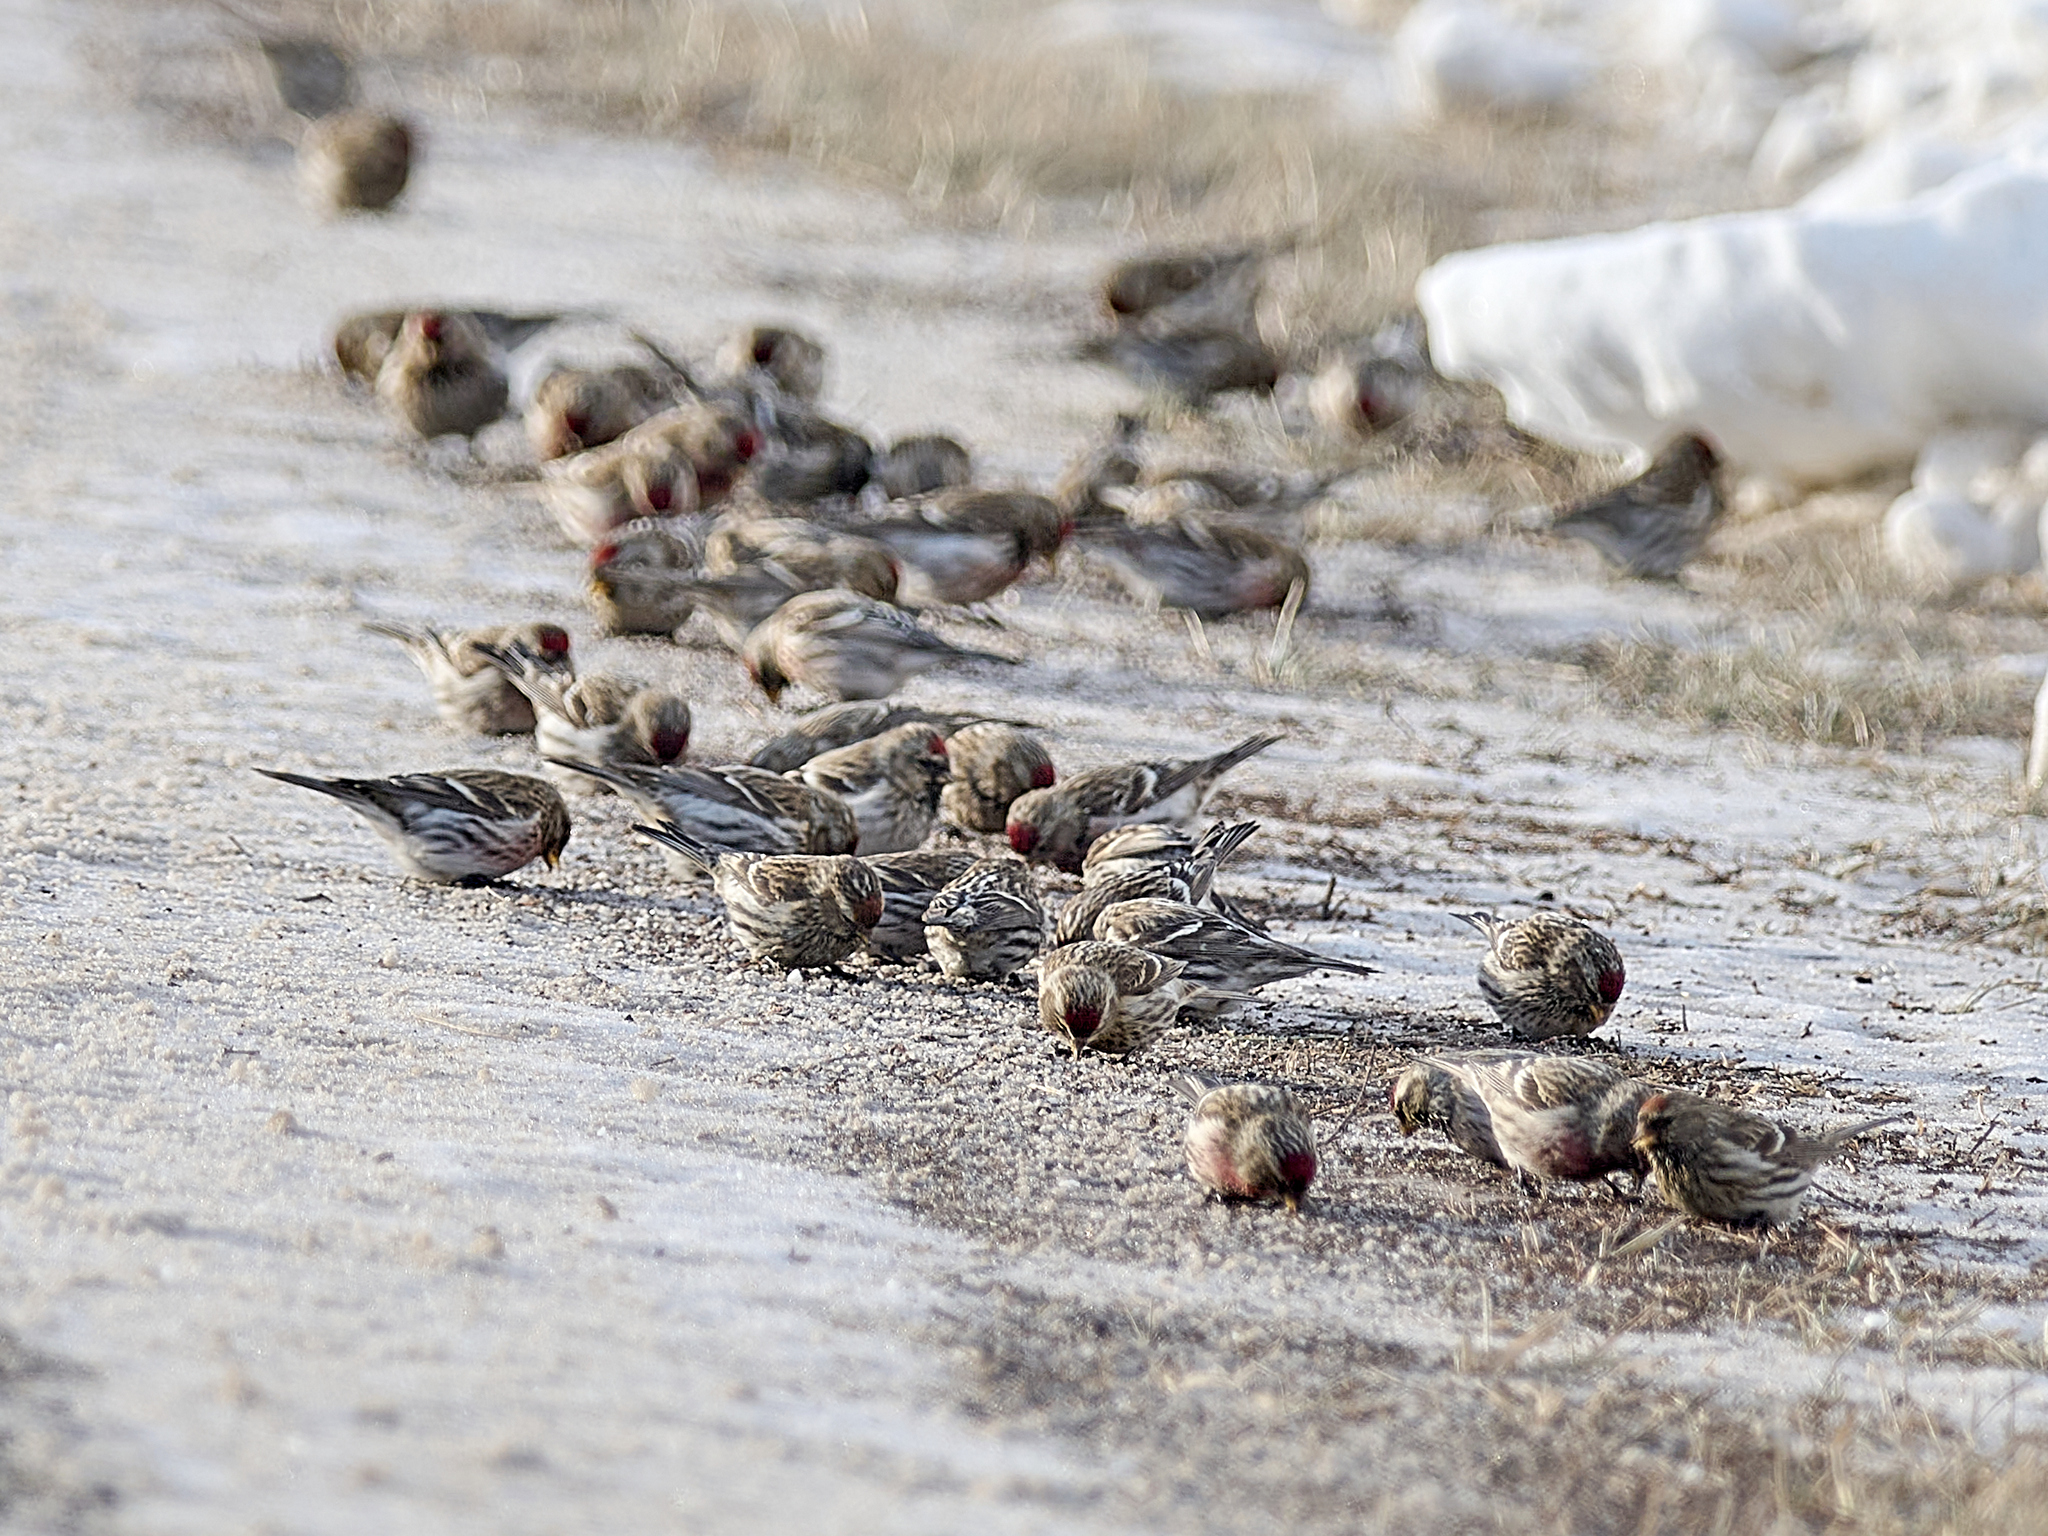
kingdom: Animalia
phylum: Chordata
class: Aves
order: Passeriformes
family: Fringillidae
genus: Acanthis
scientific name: Acanthis flammea
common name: Common redpoll
